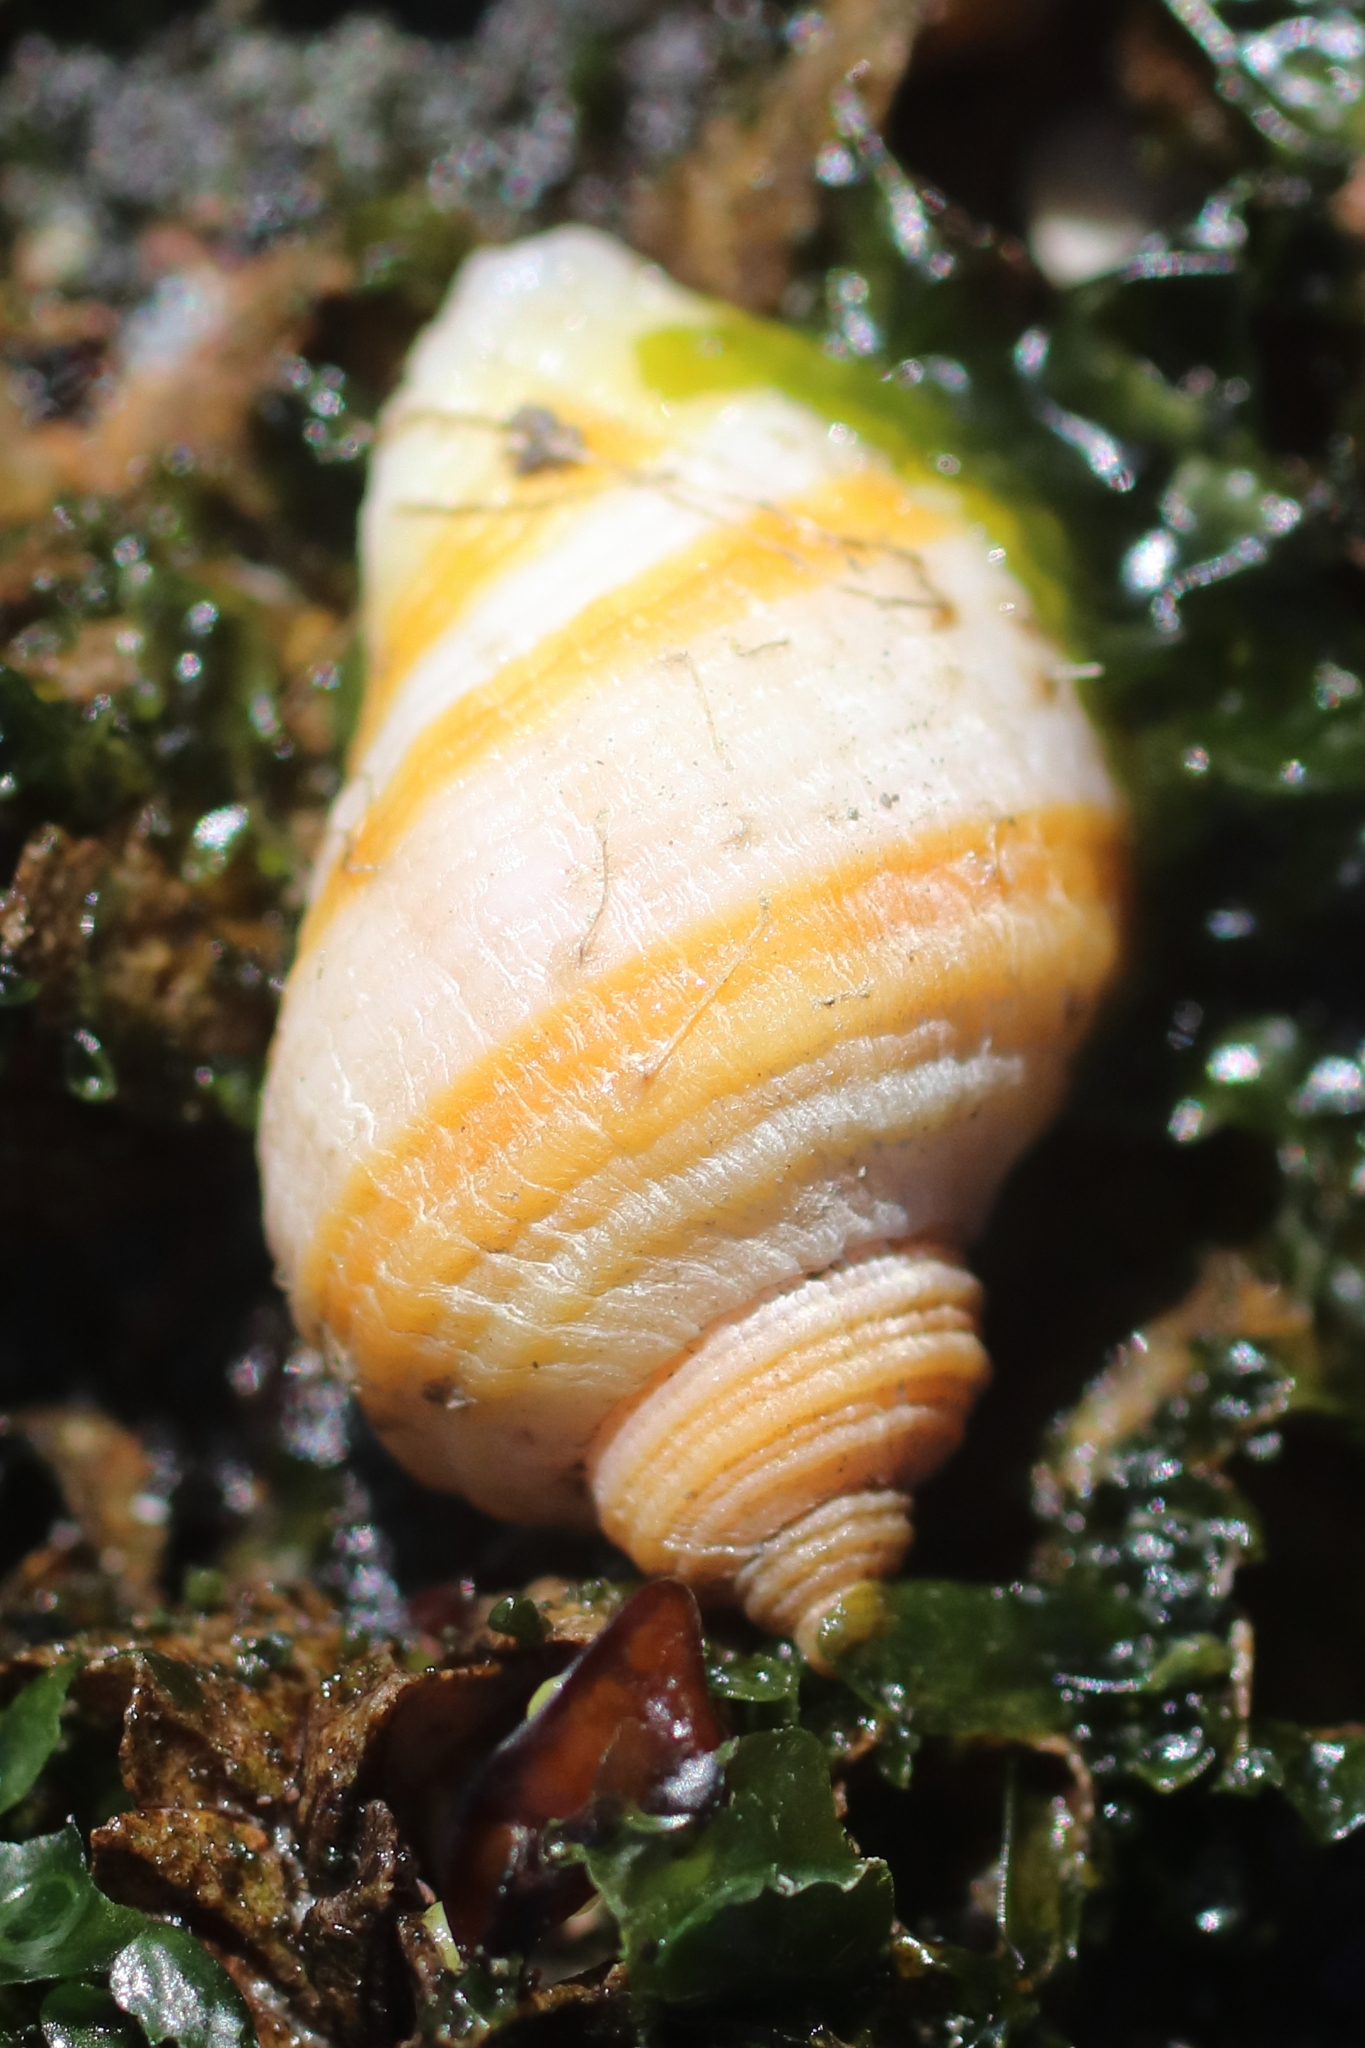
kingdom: Animalia
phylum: Mollusca
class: Gastropoda
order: Neogastropoda
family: Muricidae
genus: Nucella
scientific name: Nucella lima
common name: Rough purple
